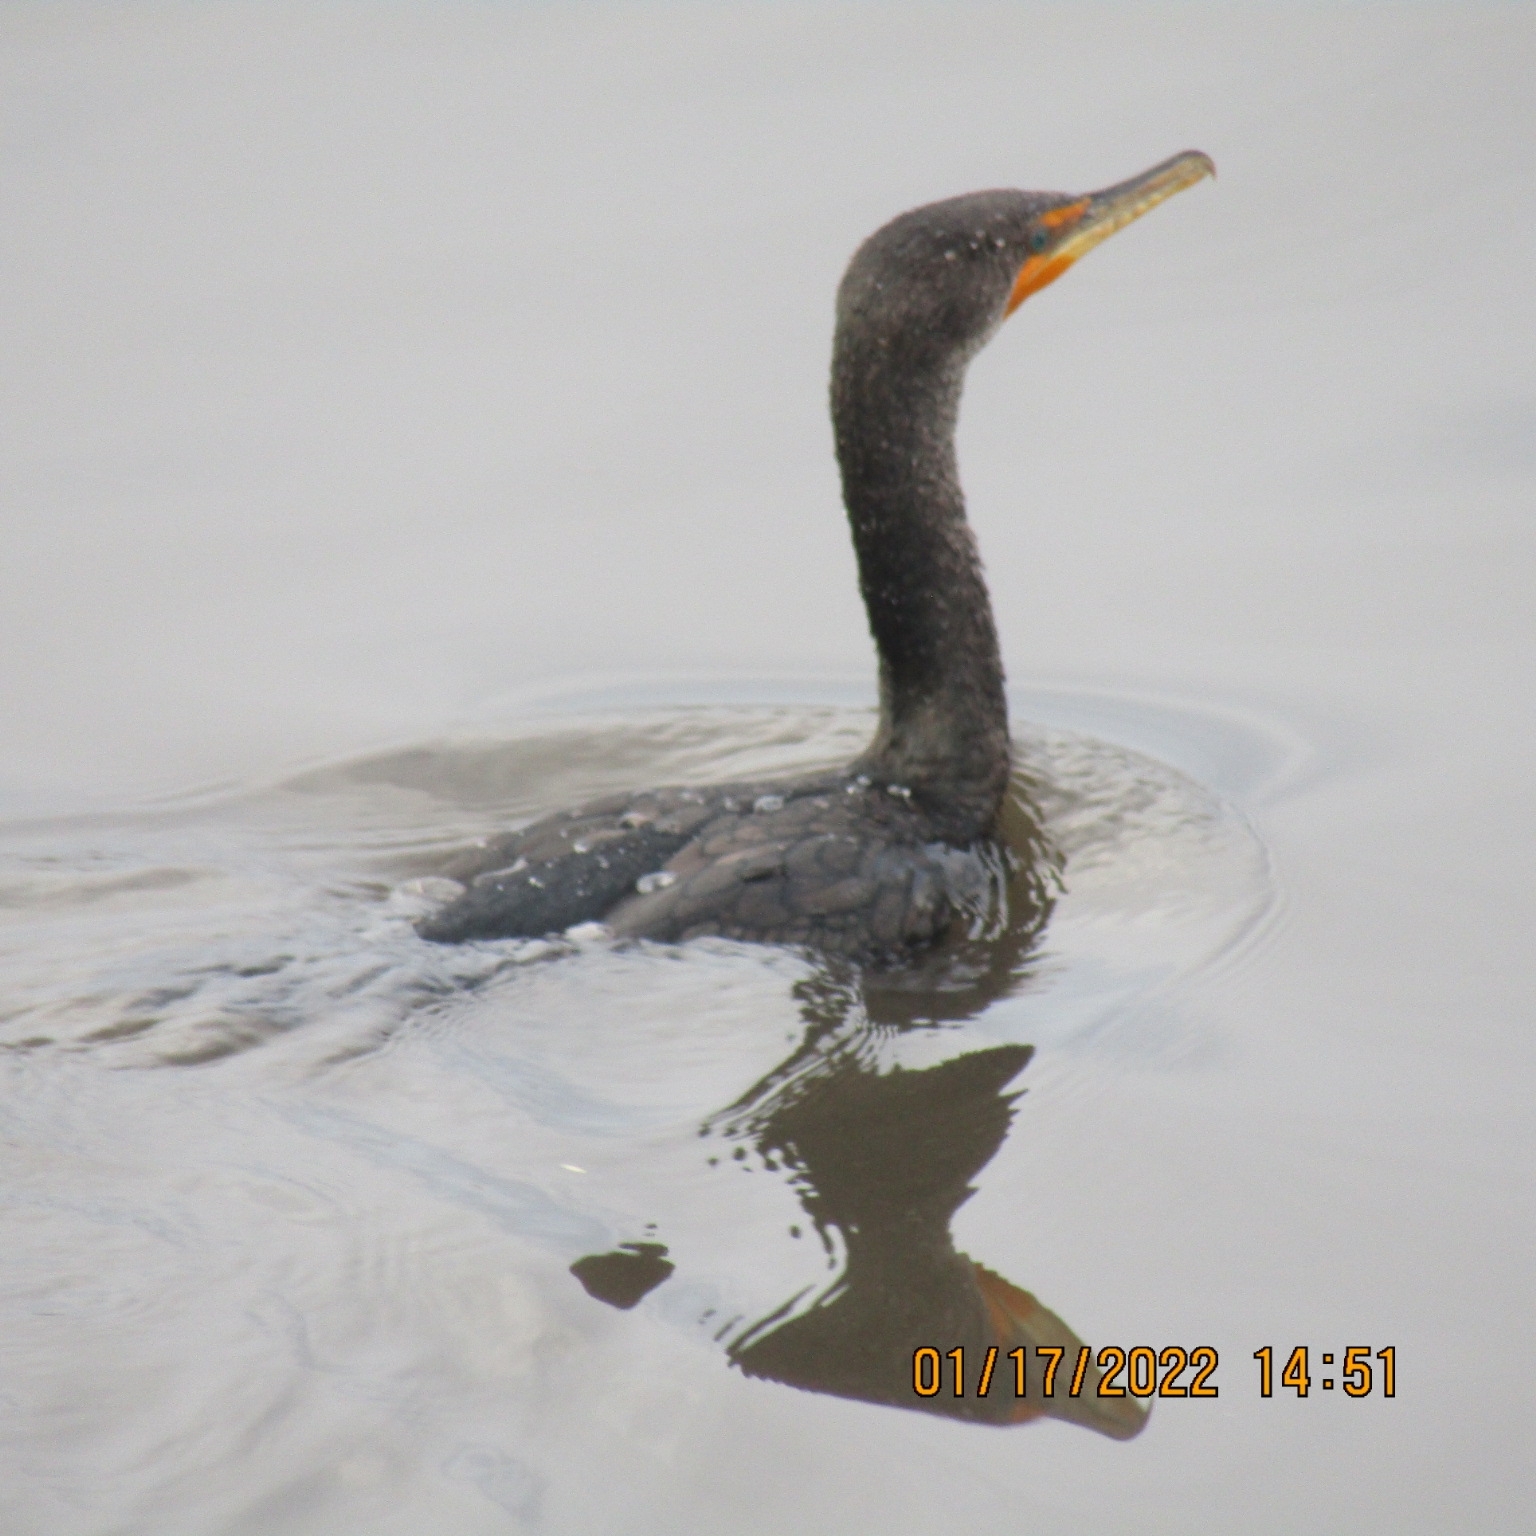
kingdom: Animalia
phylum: Chordata
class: Aves
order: Suliformes
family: Phalacrocoracidae
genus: Phalacrocorax
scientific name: Phalacrocorax auritus
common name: Double-crested cormorant
